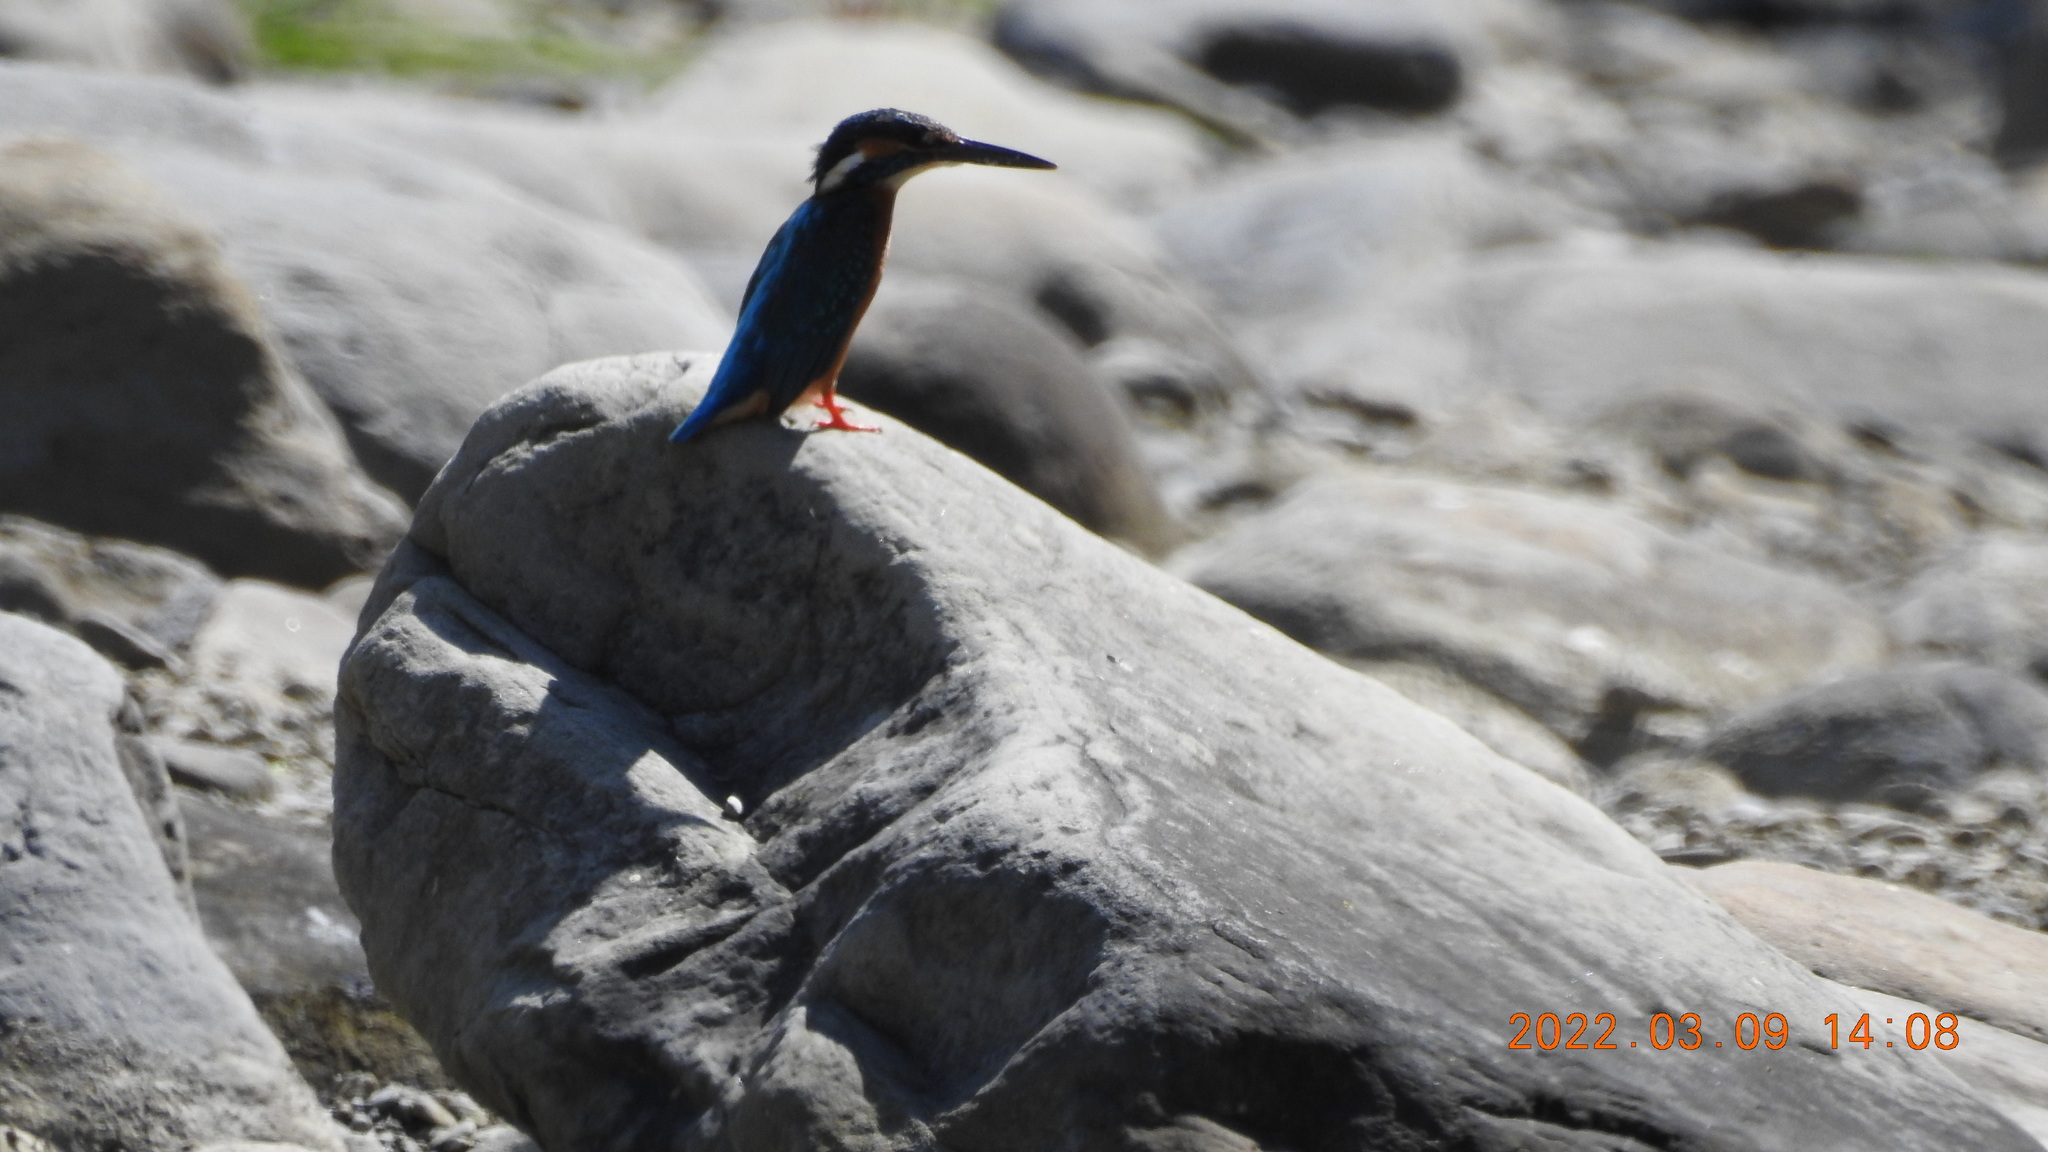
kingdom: Animalia
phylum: Chordata
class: Aves
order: Coraciiformes
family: Alcedinidae
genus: Alcedo
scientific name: Alcedo atthis
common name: Common kingfisher
